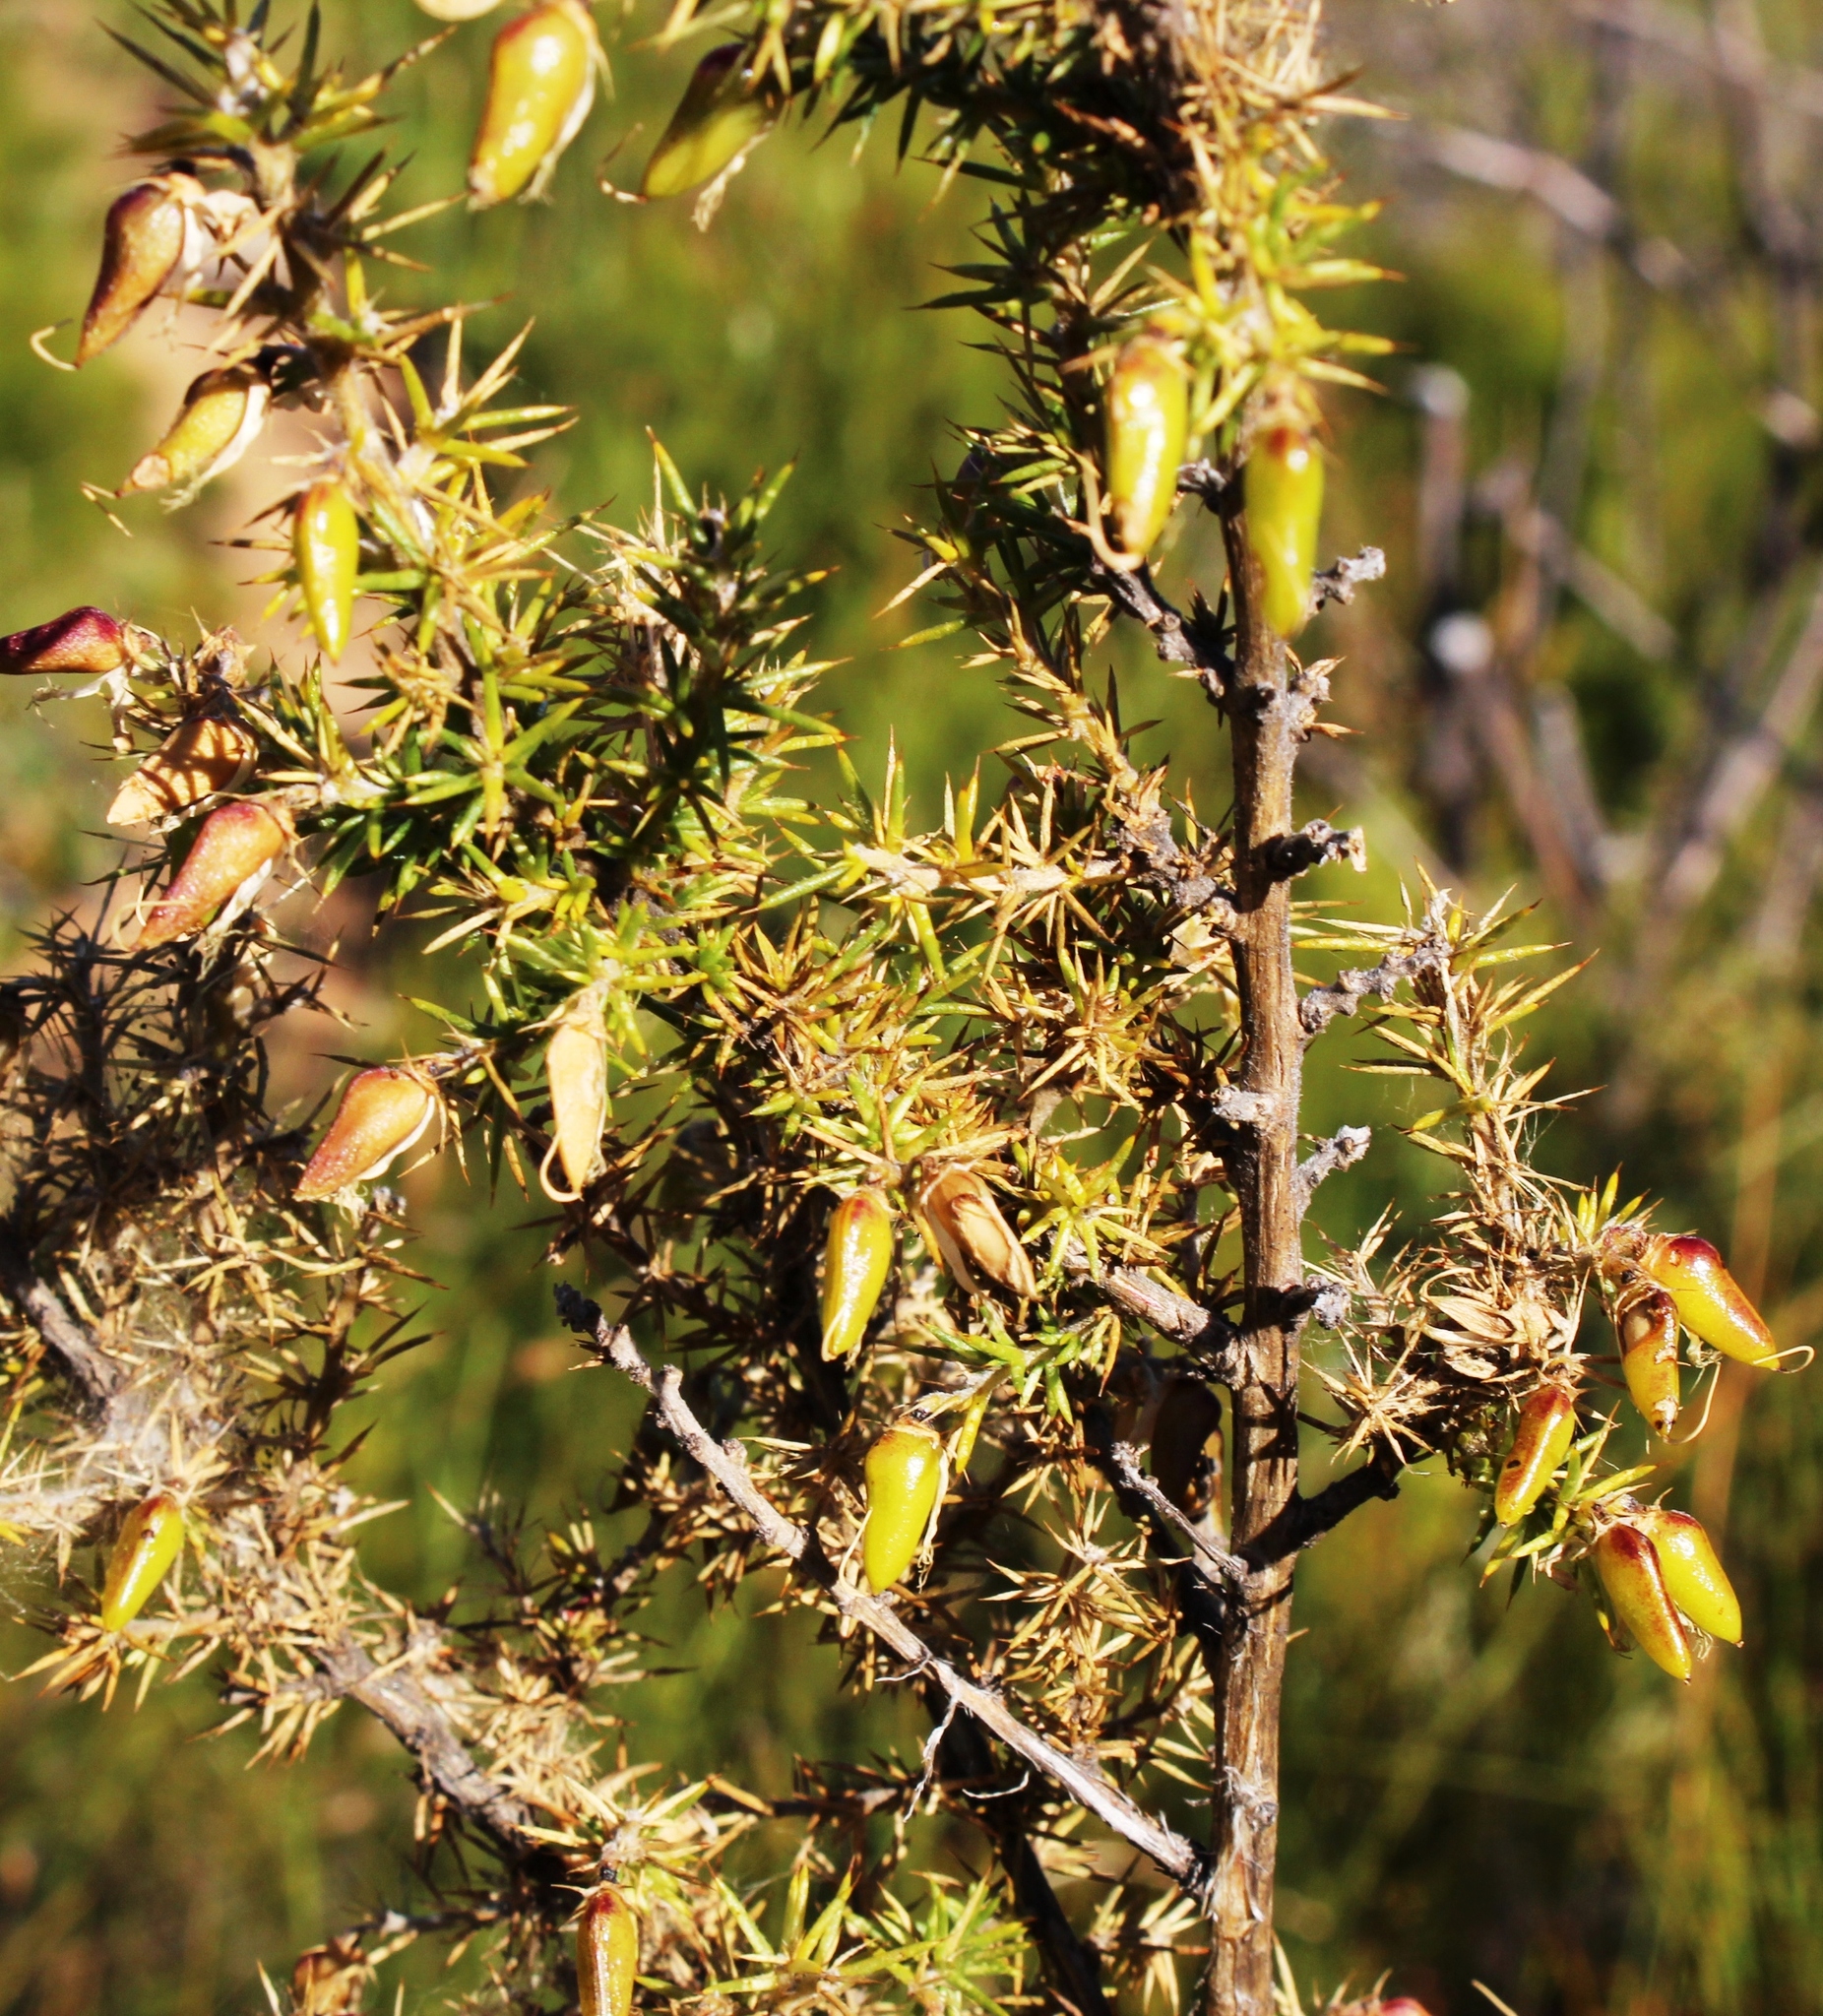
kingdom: Plantae
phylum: Tracheophyta
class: Magnoliopsida
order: Fabales
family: Fabaceae
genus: Aspalathus
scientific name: Aspalathus astroites
